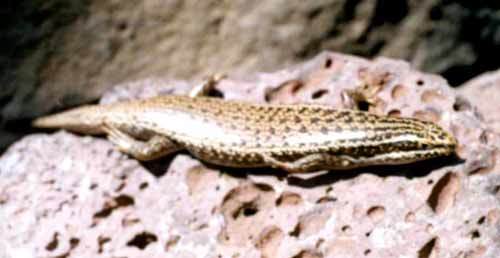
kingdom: Animalia
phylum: Chordata
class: Squamata
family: Scincidae
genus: Heremites
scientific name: Heremites septemtaeniatus
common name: Golden grass mabuya
